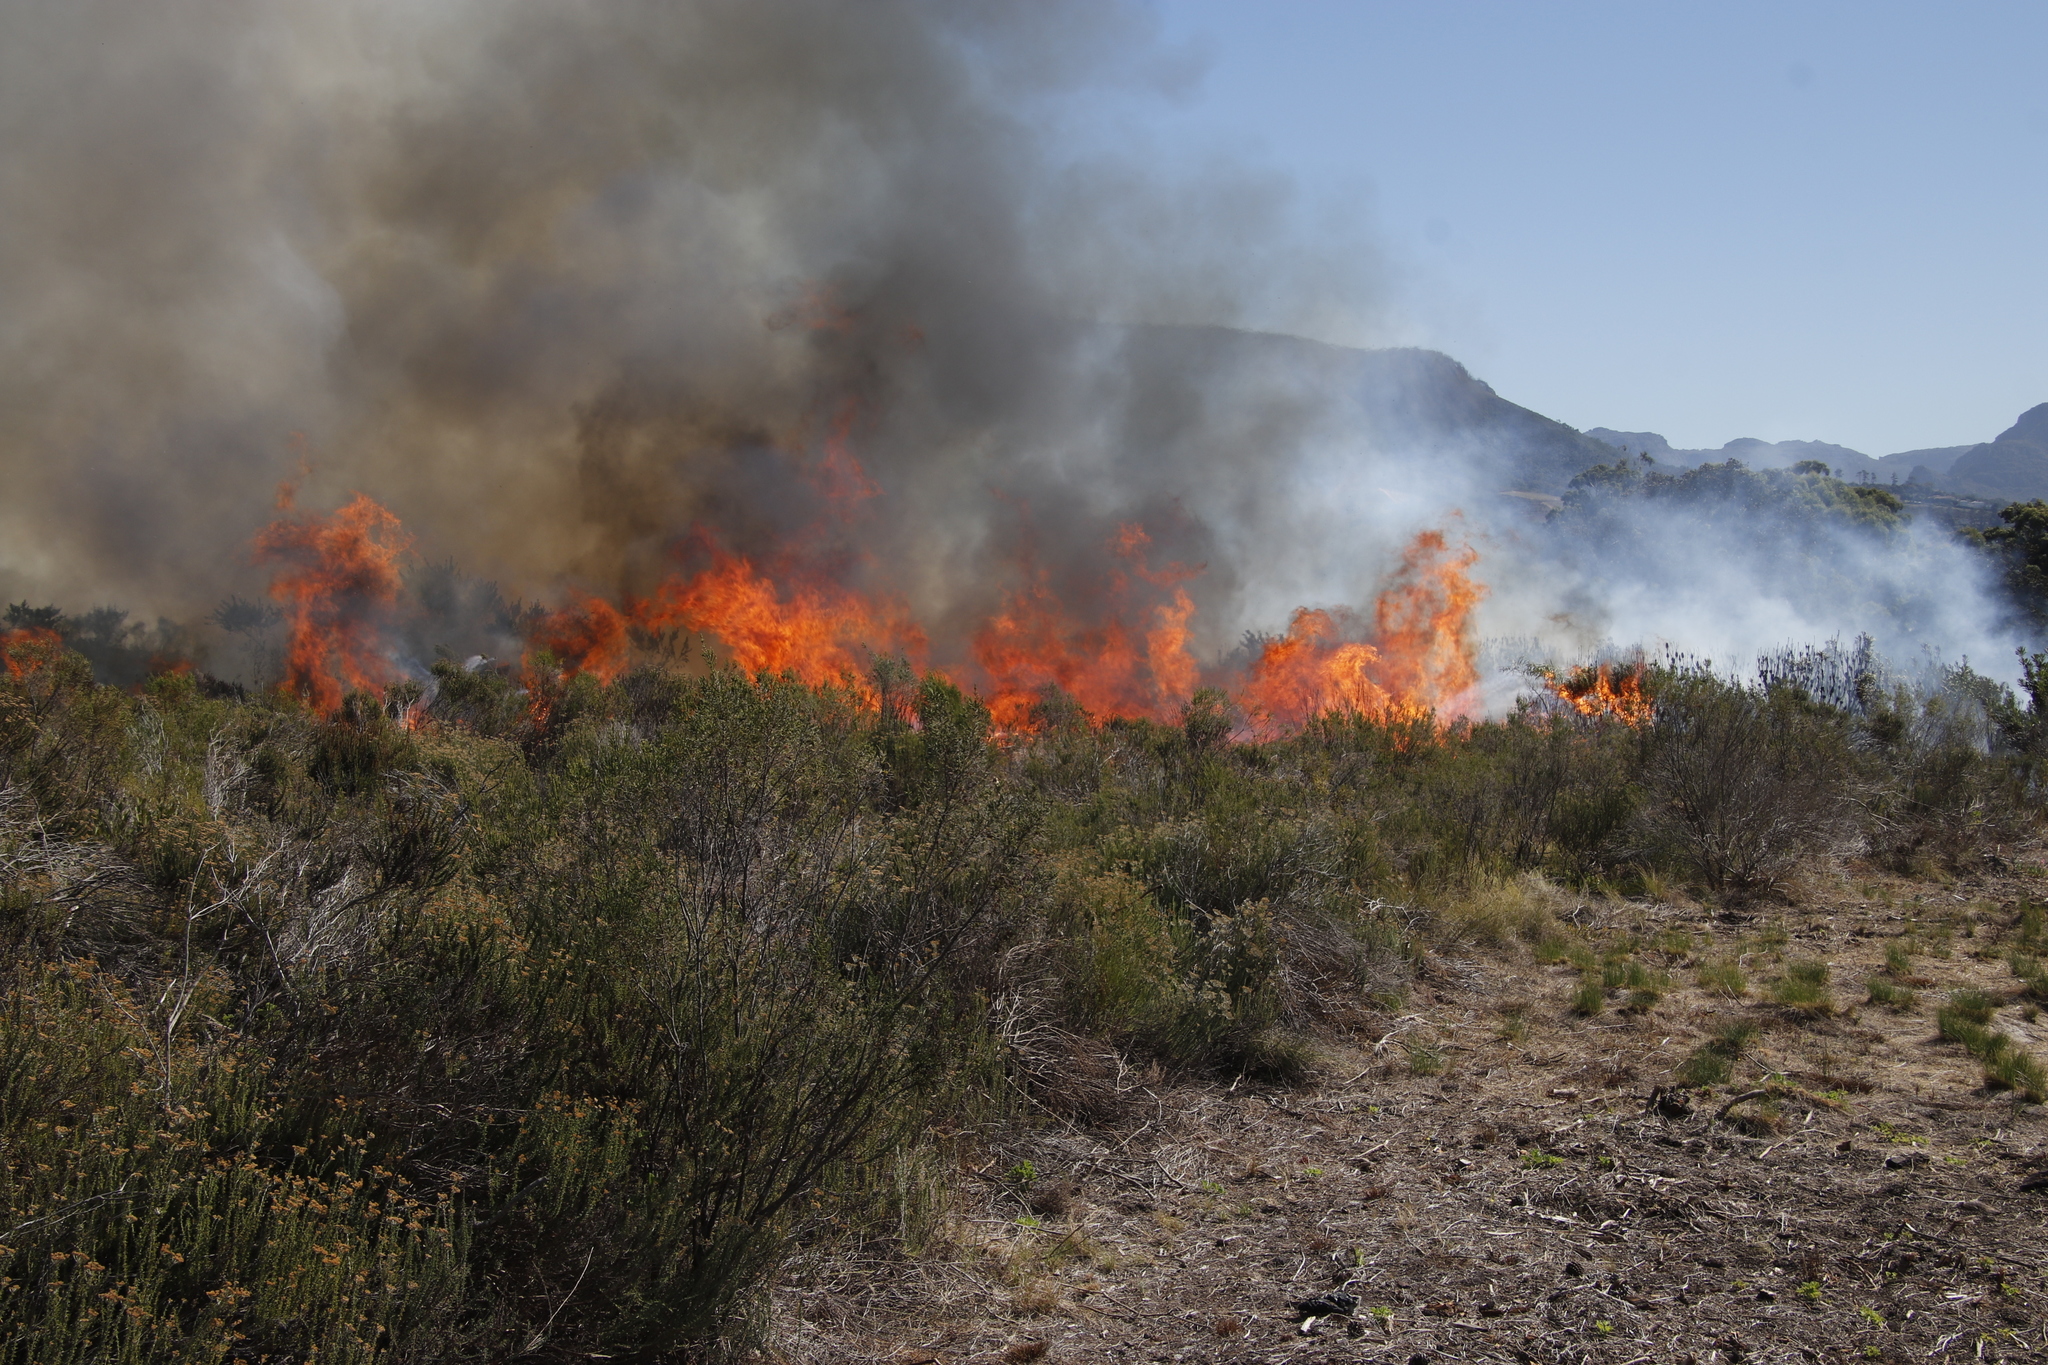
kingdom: Plantae
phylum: Tracheophyta
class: Magnoliopsida
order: Malvales
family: Thymelaeaceae
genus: Passerina
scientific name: Passerina corymbosa
